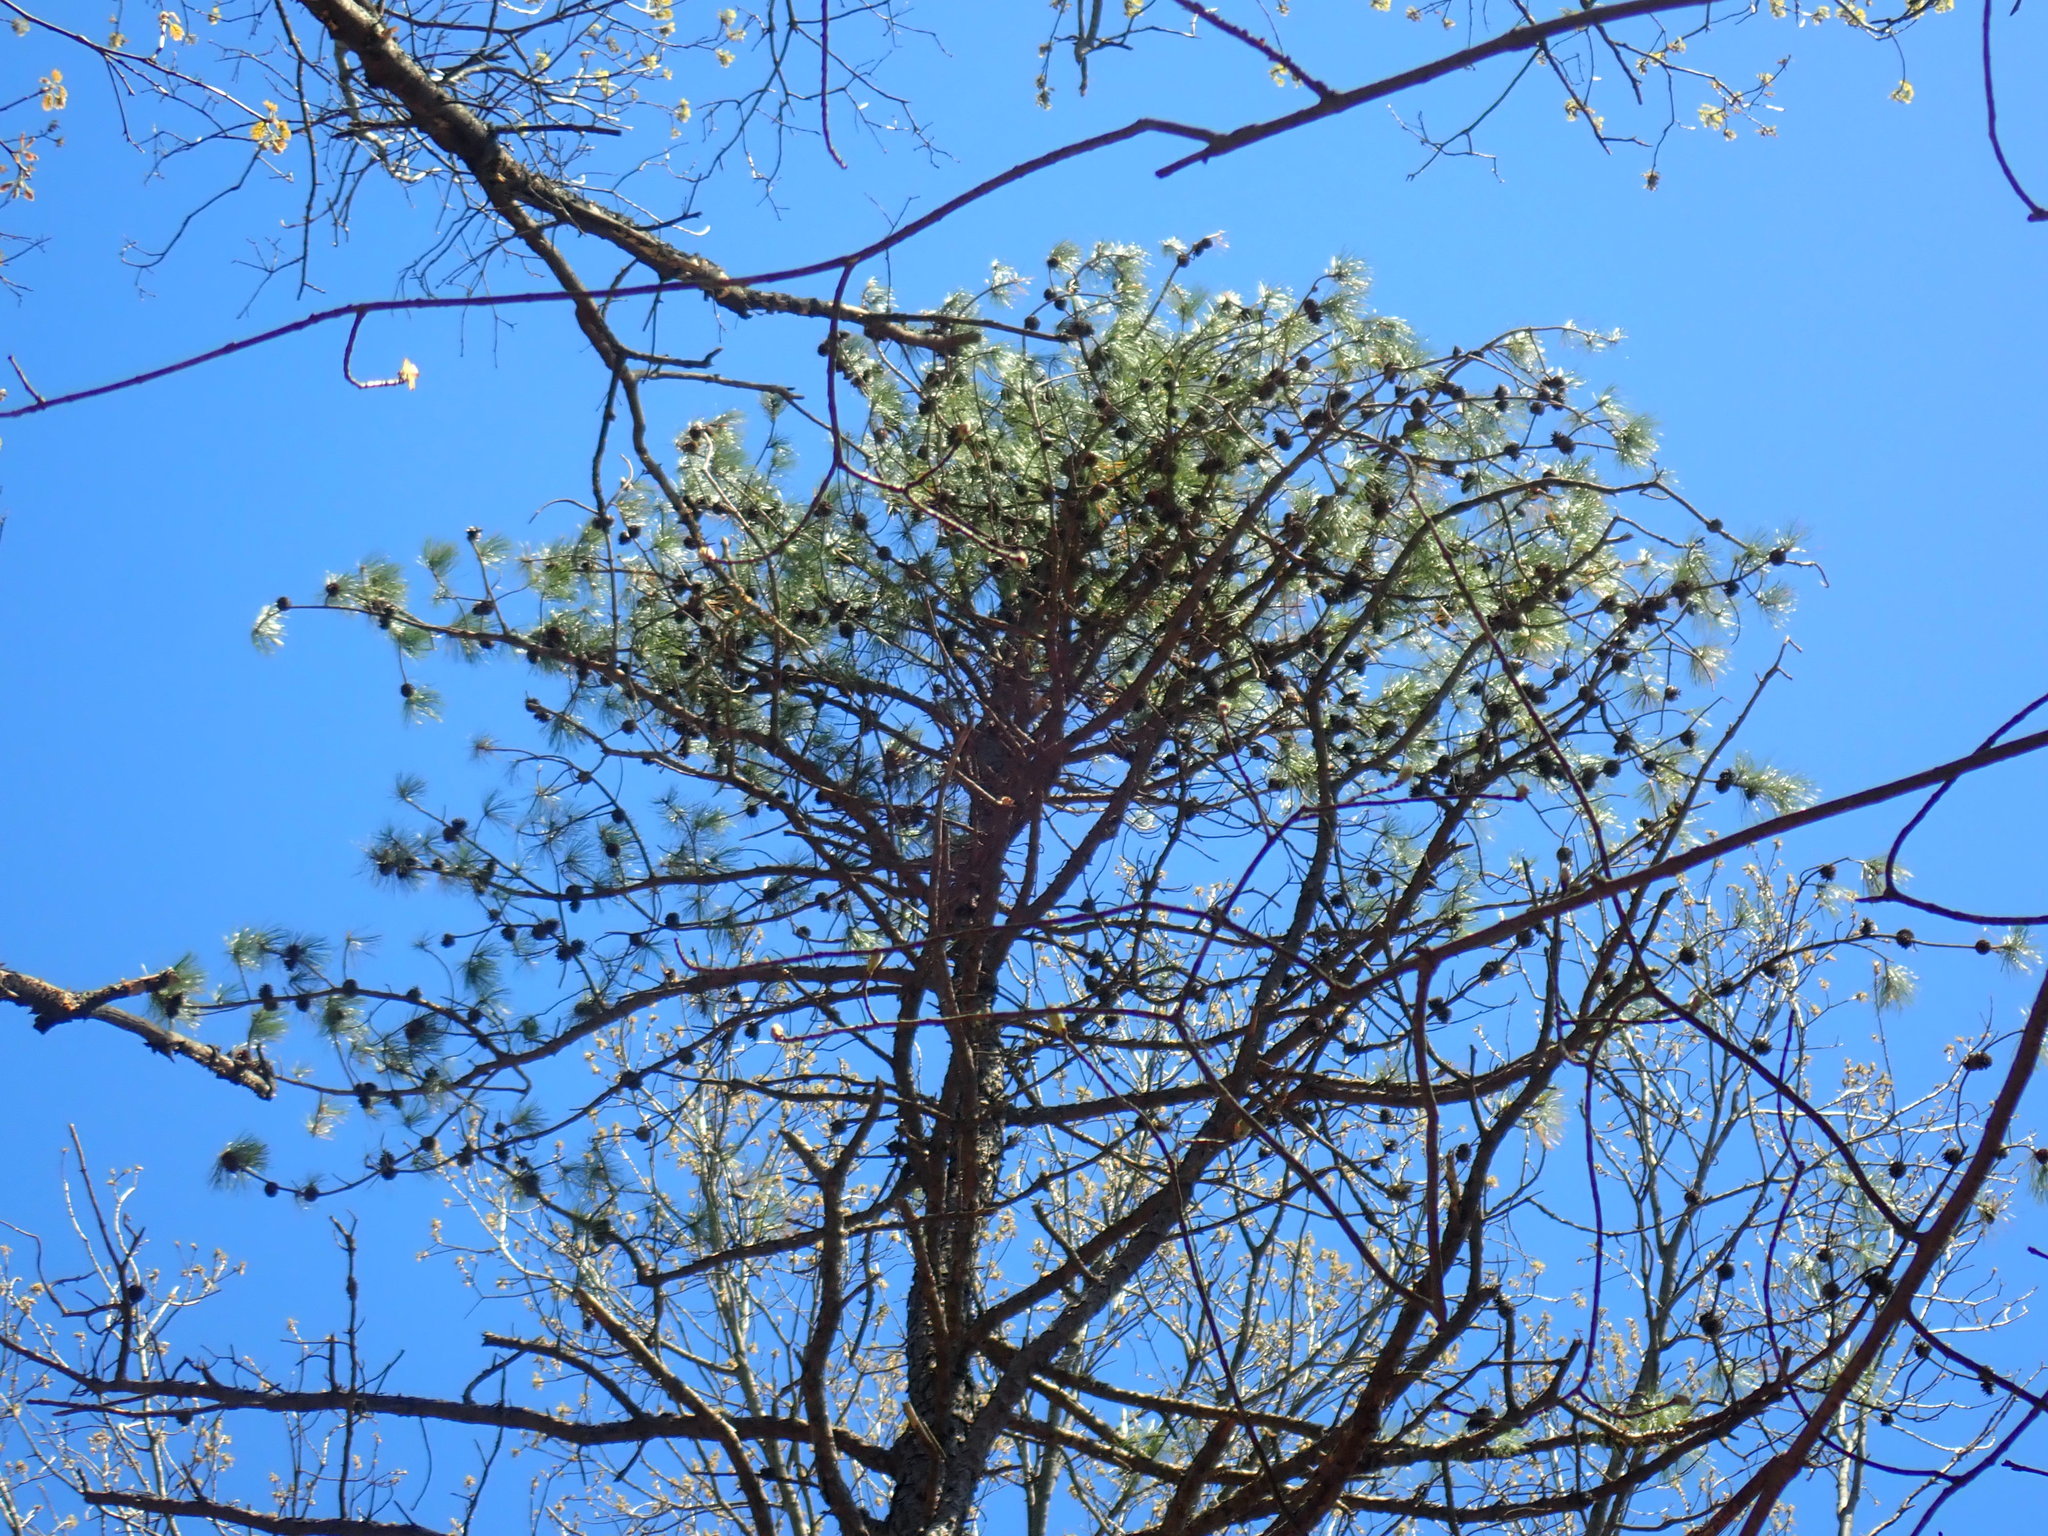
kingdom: Plantae
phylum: Tracheophyta
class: Pinopsida
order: Pinales
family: Pinaceae
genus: Pinus
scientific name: Pinus rigida
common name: Pitch pine
